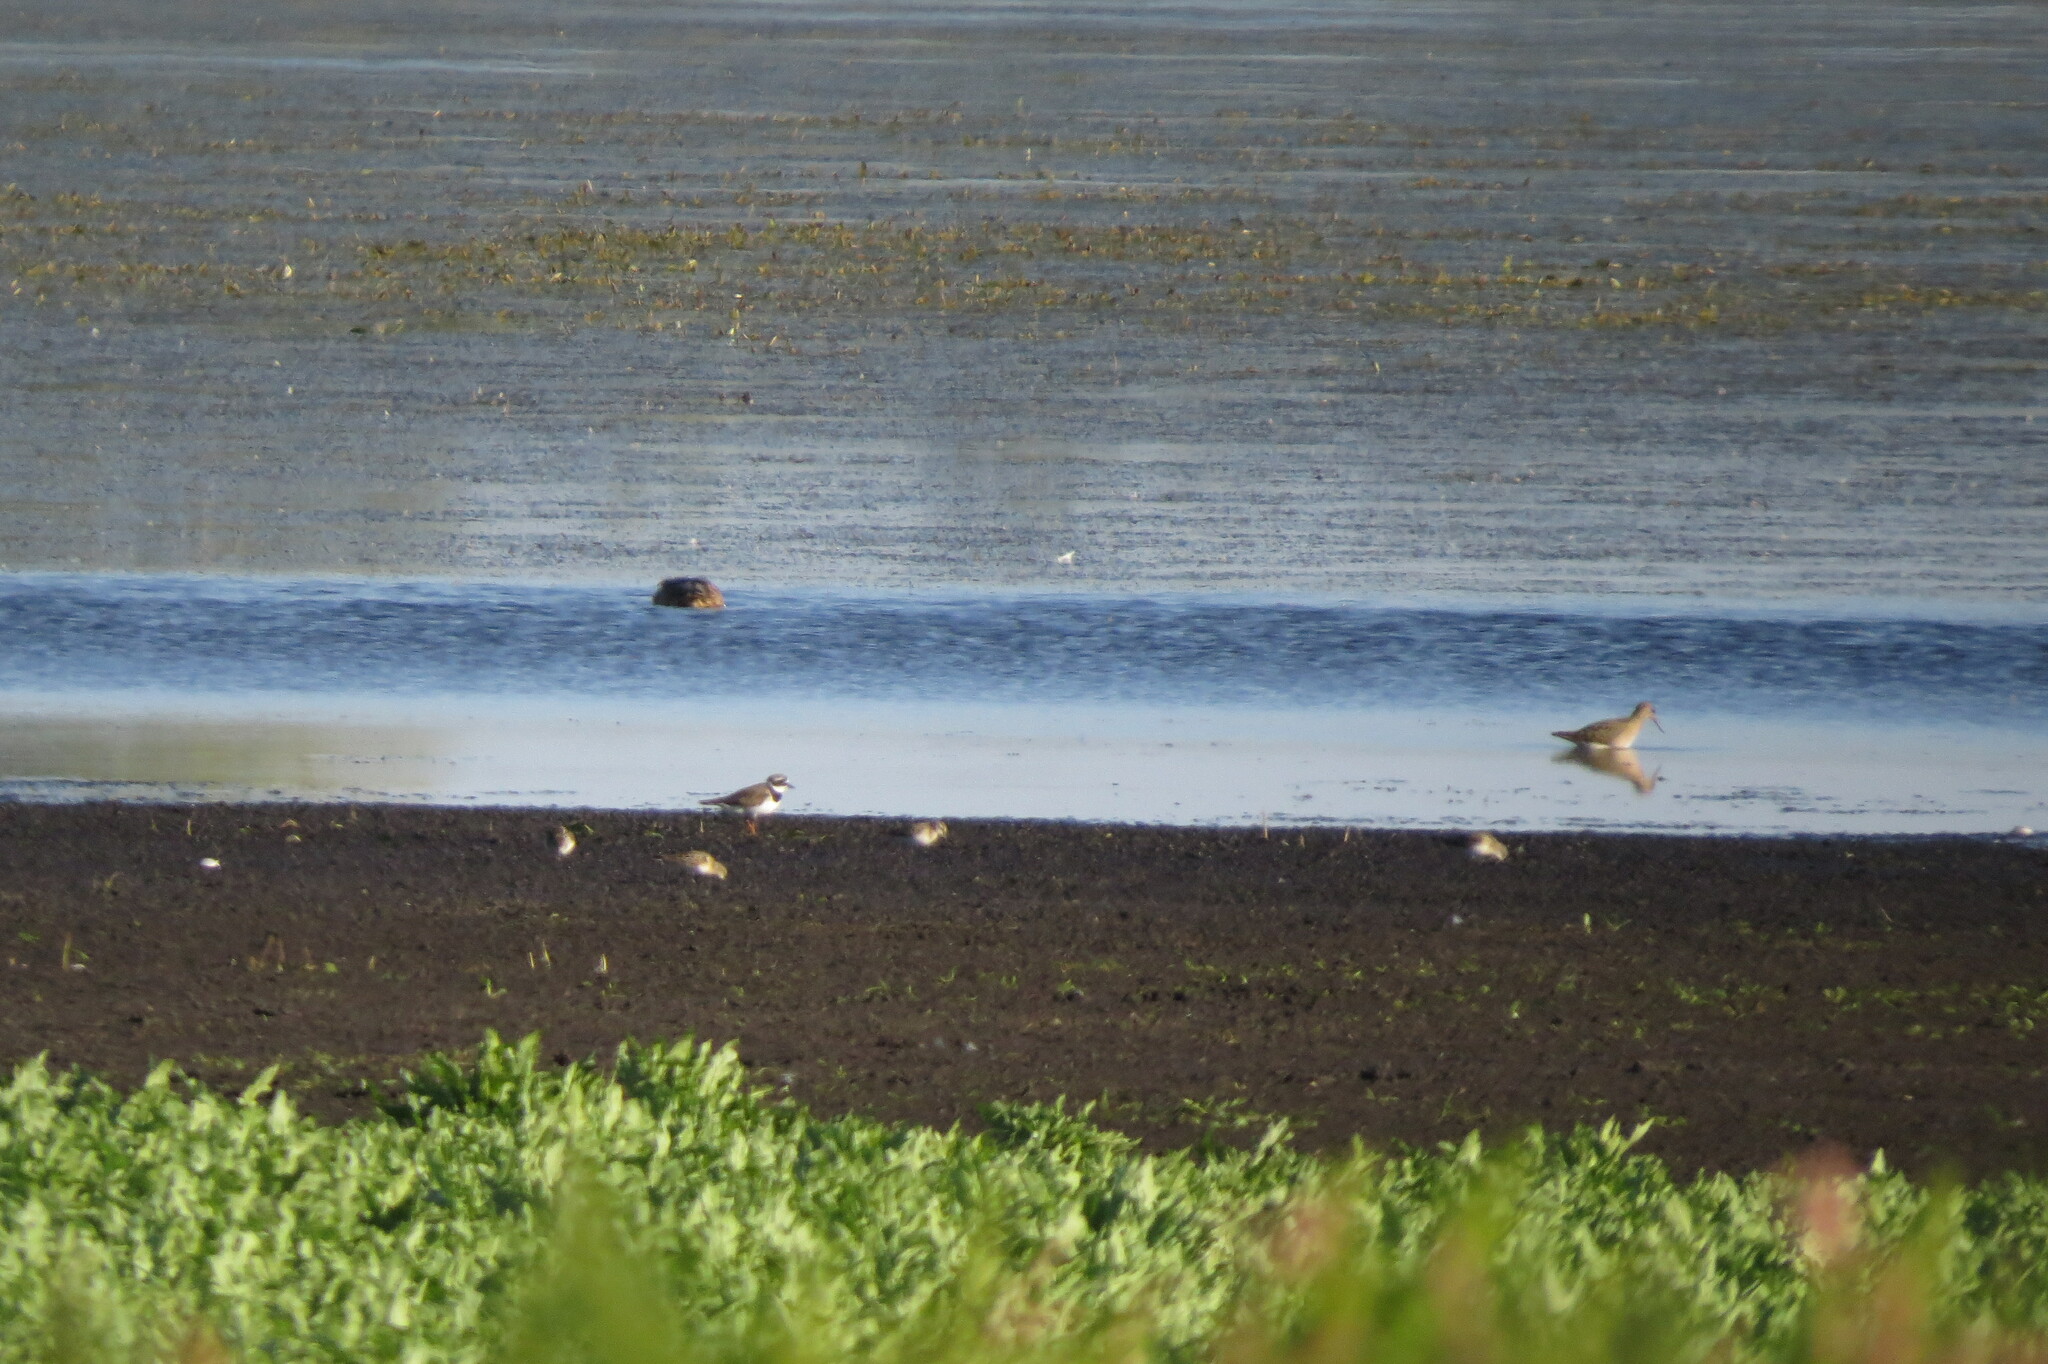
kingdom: Animalia
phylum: Chordata
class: Aves
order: Charadriiformes
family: Scolopacidae
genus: Calidris
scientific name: Calidris minuta
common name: Little stint
